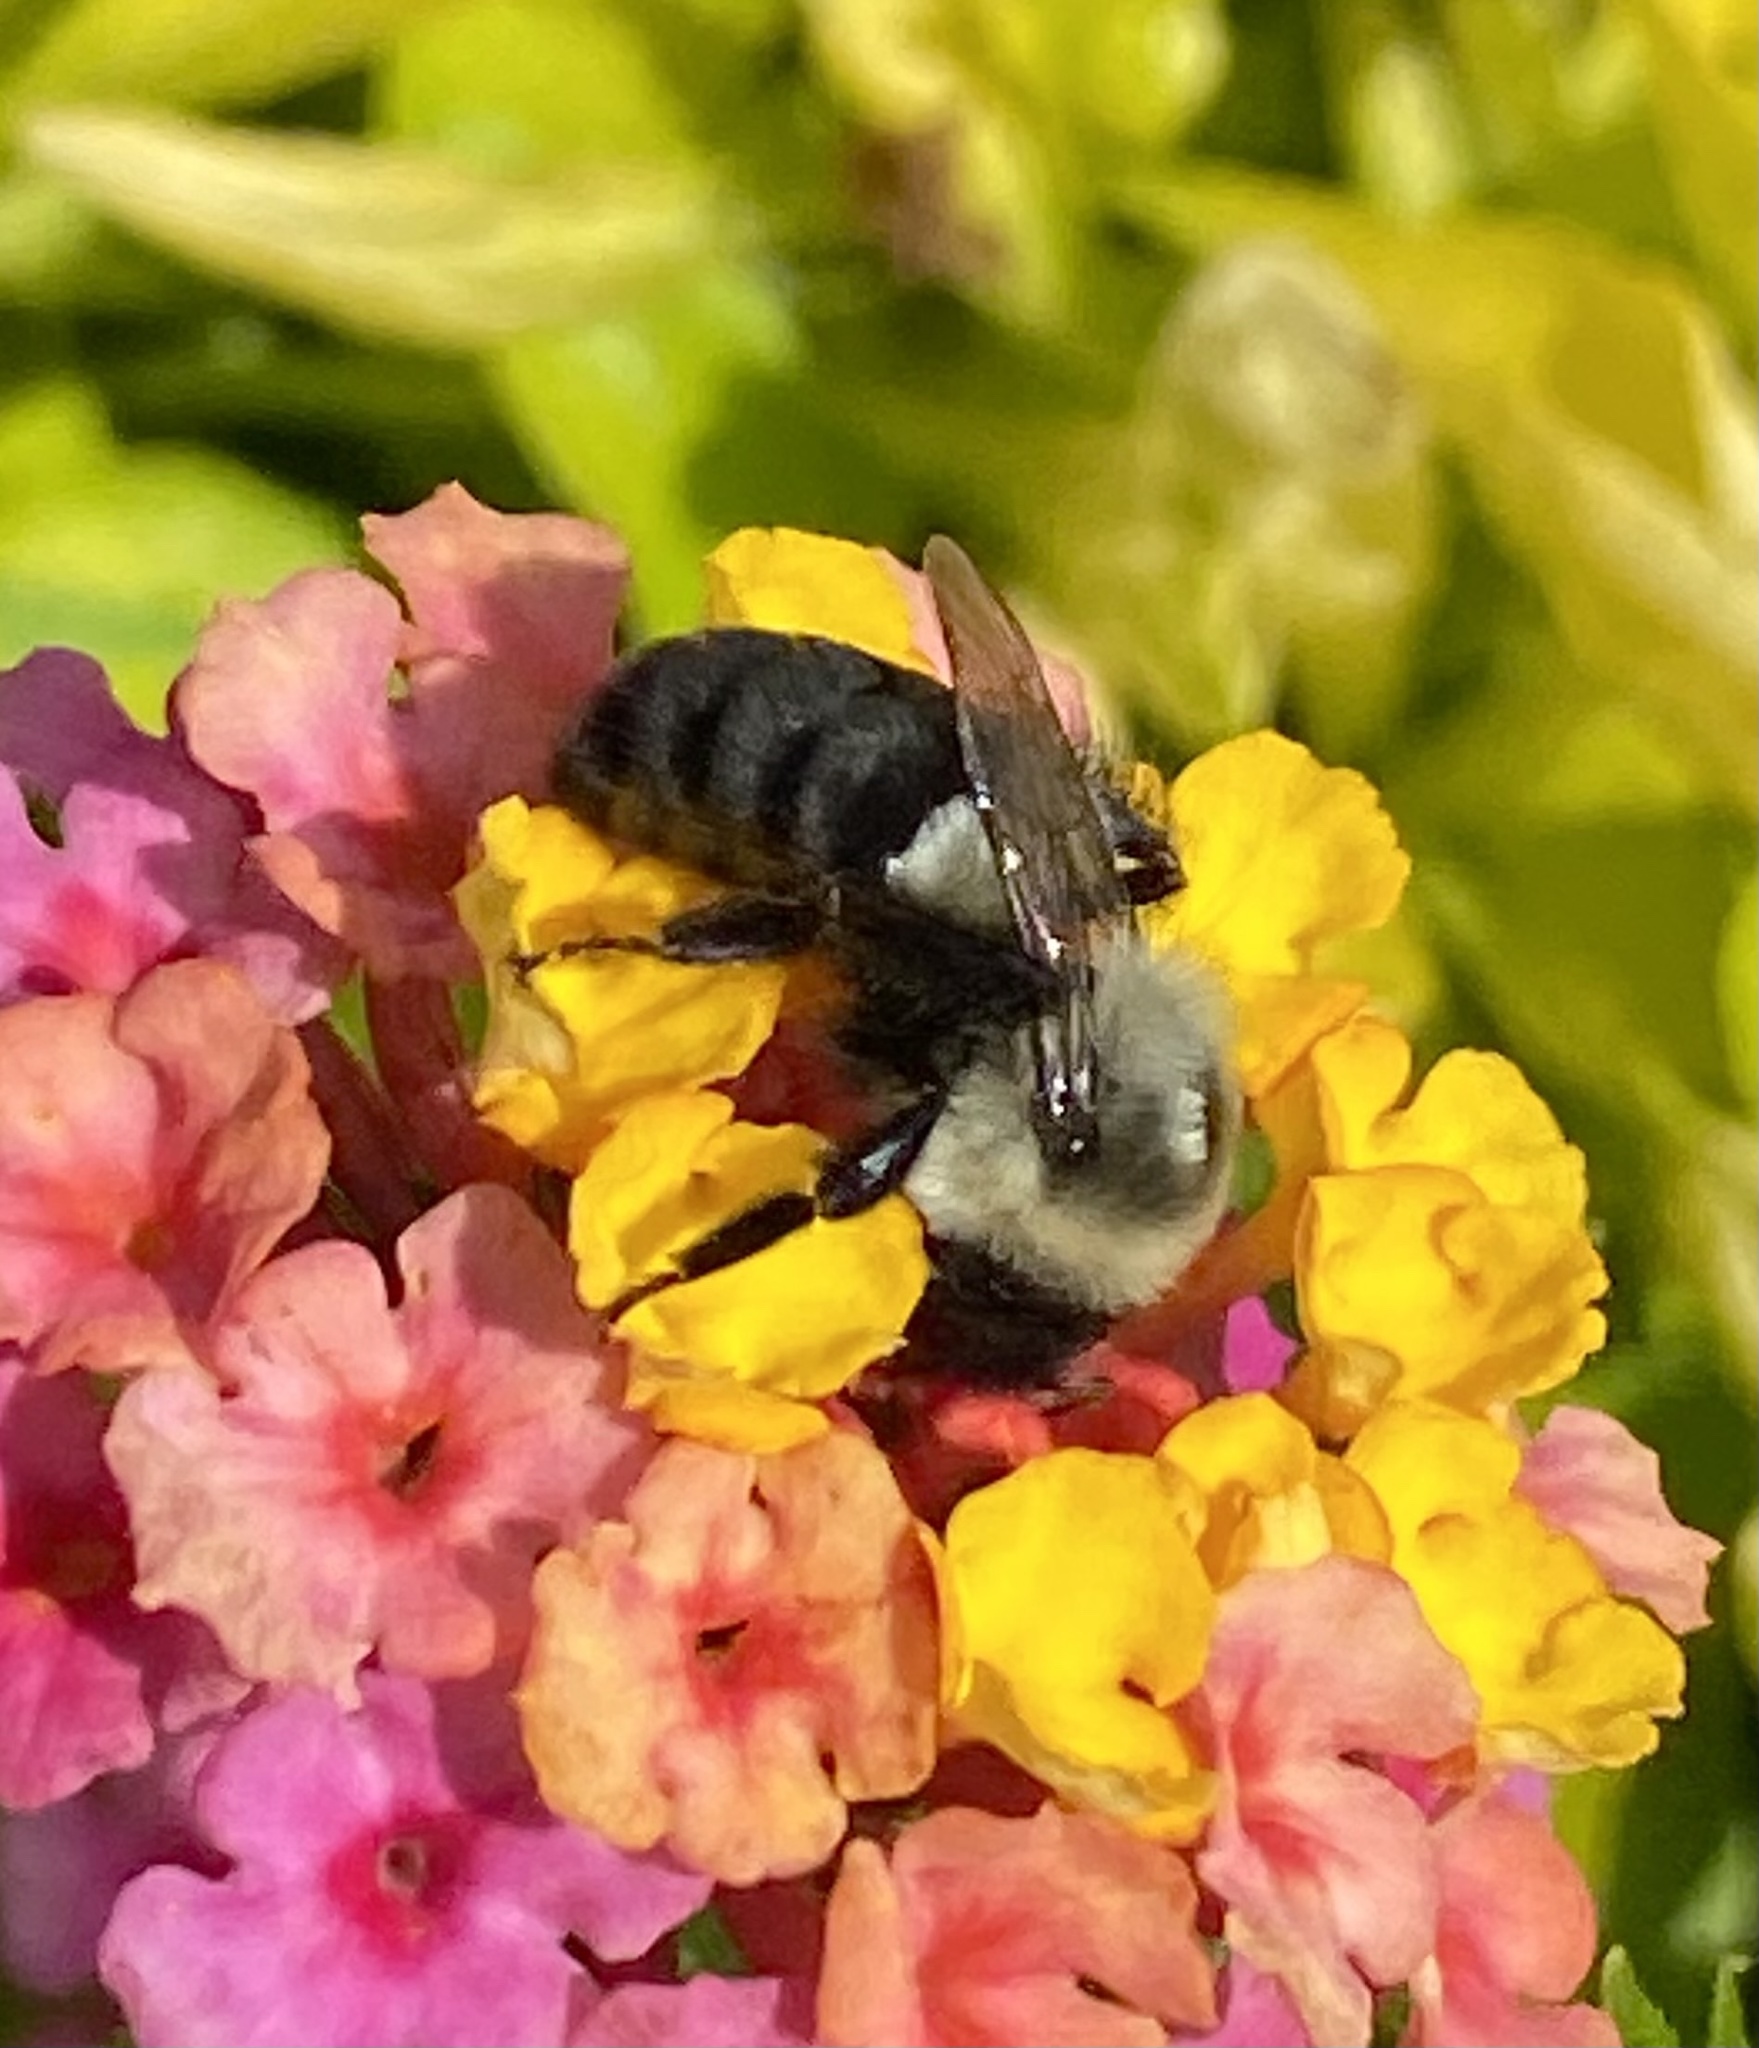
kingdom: Animalia
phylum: Arthropoda
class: Insecta
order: Hymenoptera
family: Apidae
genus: Bombus
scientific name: Bombus impatiens
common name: Common eastern bumble bee
